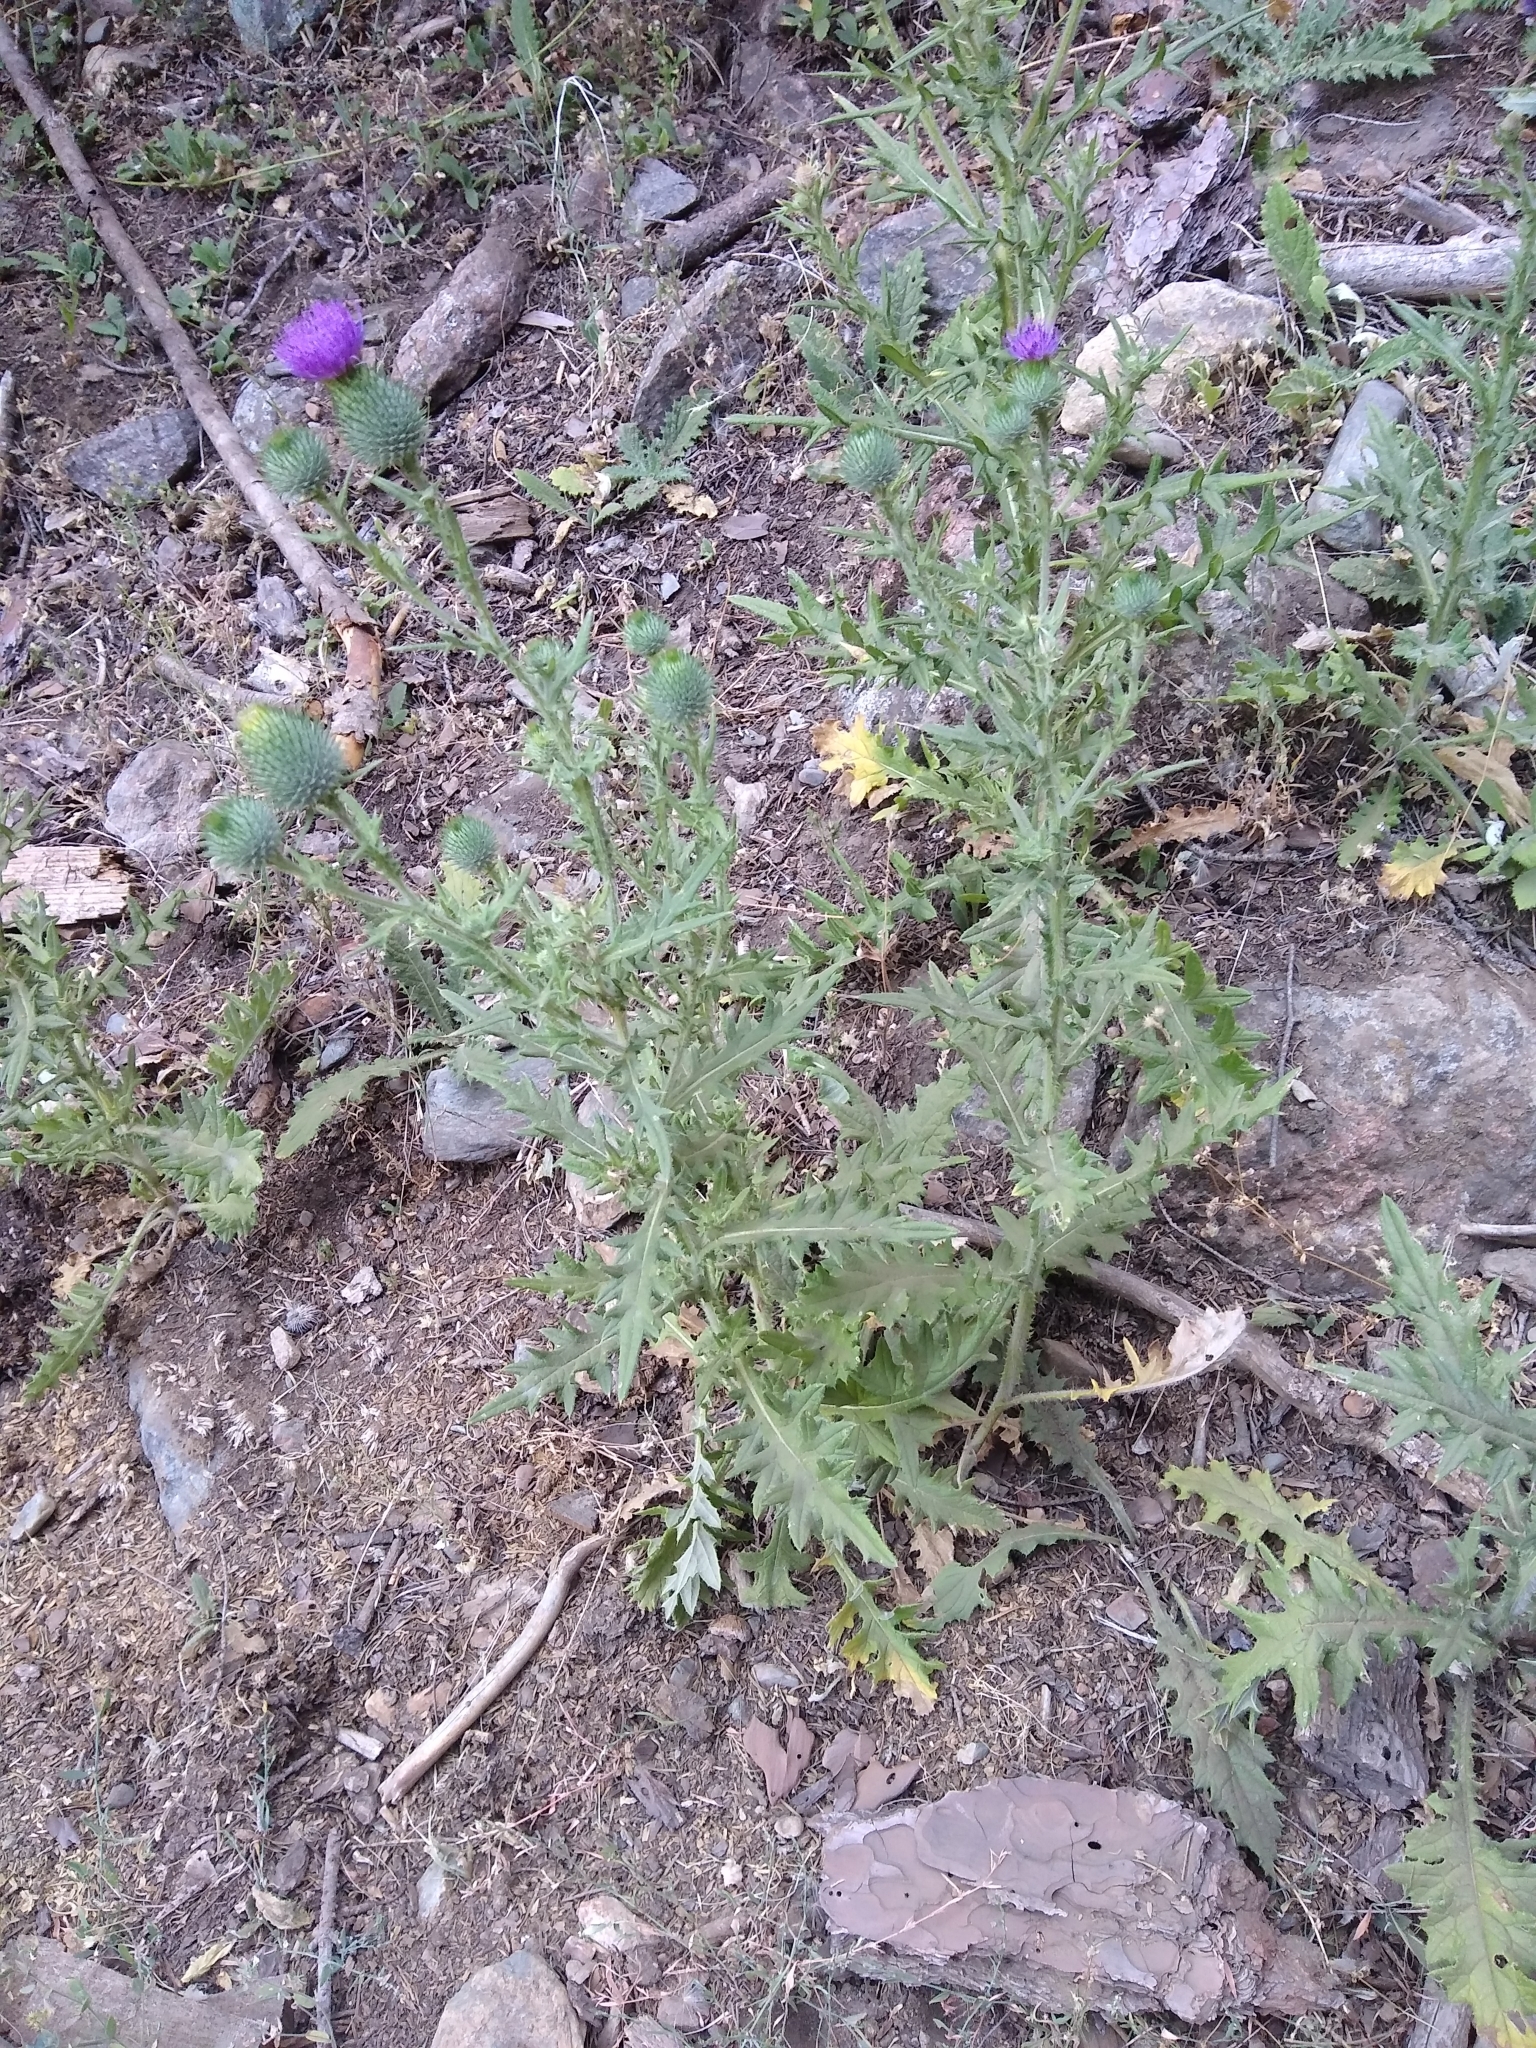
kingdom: Plantae
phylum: Tracheophyta
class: Magnoliopsida
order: Asterales
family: Asteraceae
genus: Cirsium
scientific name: Cirsium vulgare
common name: Bull thistle
